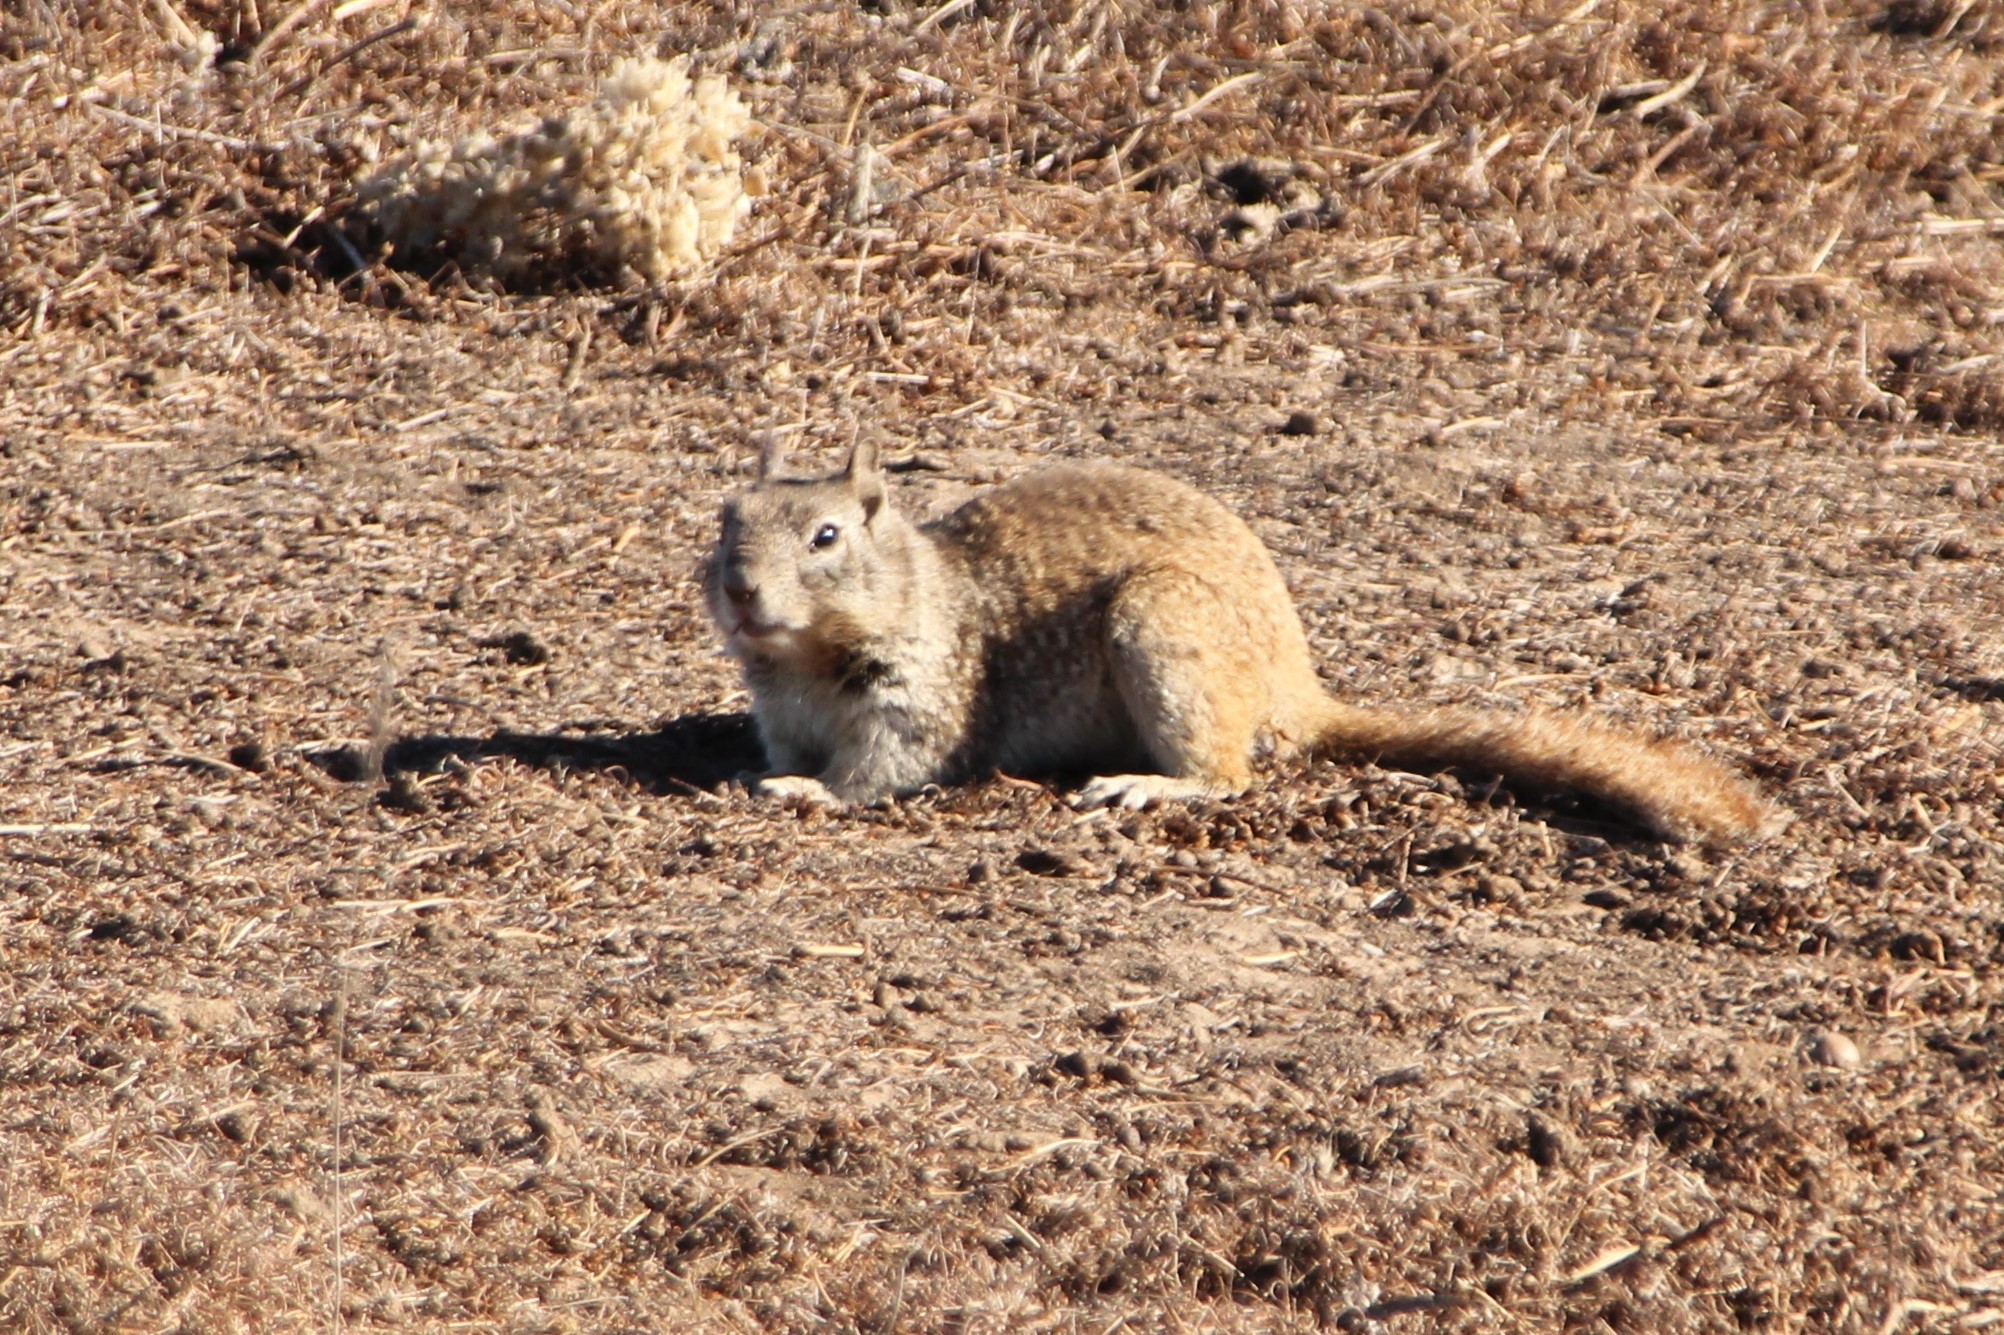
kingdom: Animalia
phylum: Chordata
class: Mammalia
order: Rodentia
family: Sciuridae
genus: Otospermophilus
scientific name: Otospermophilus beecheyi
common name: California ground squirrel
